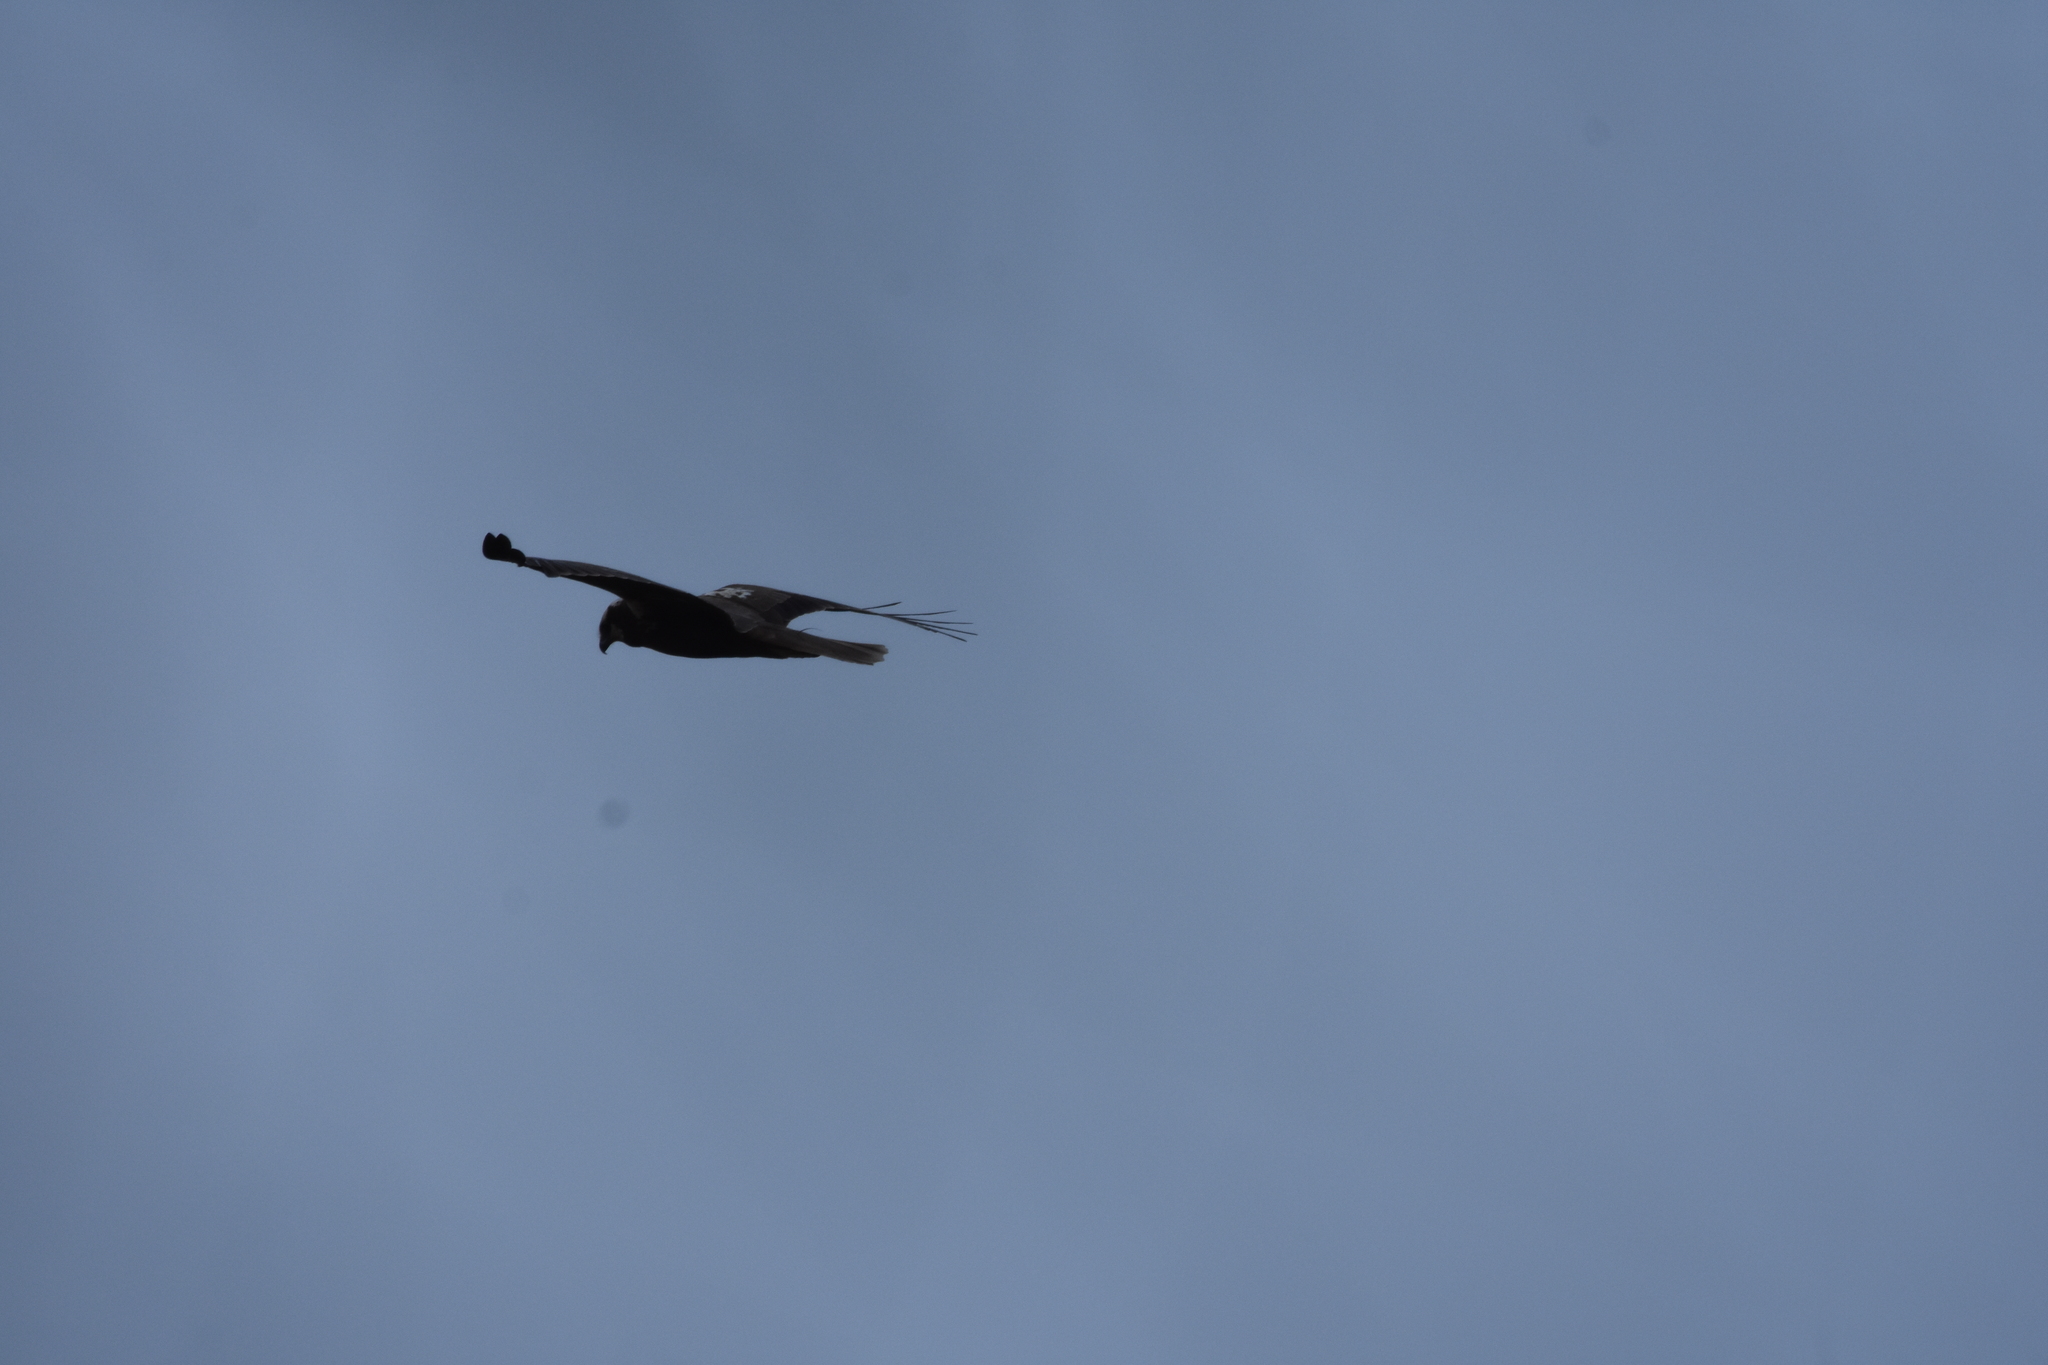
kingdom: Animalia
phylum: Chordata
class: Aves
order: Accipitriformes
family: Accipitridae
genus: Circus
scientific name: Circus aeruginosus
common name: Western marsh harrier
